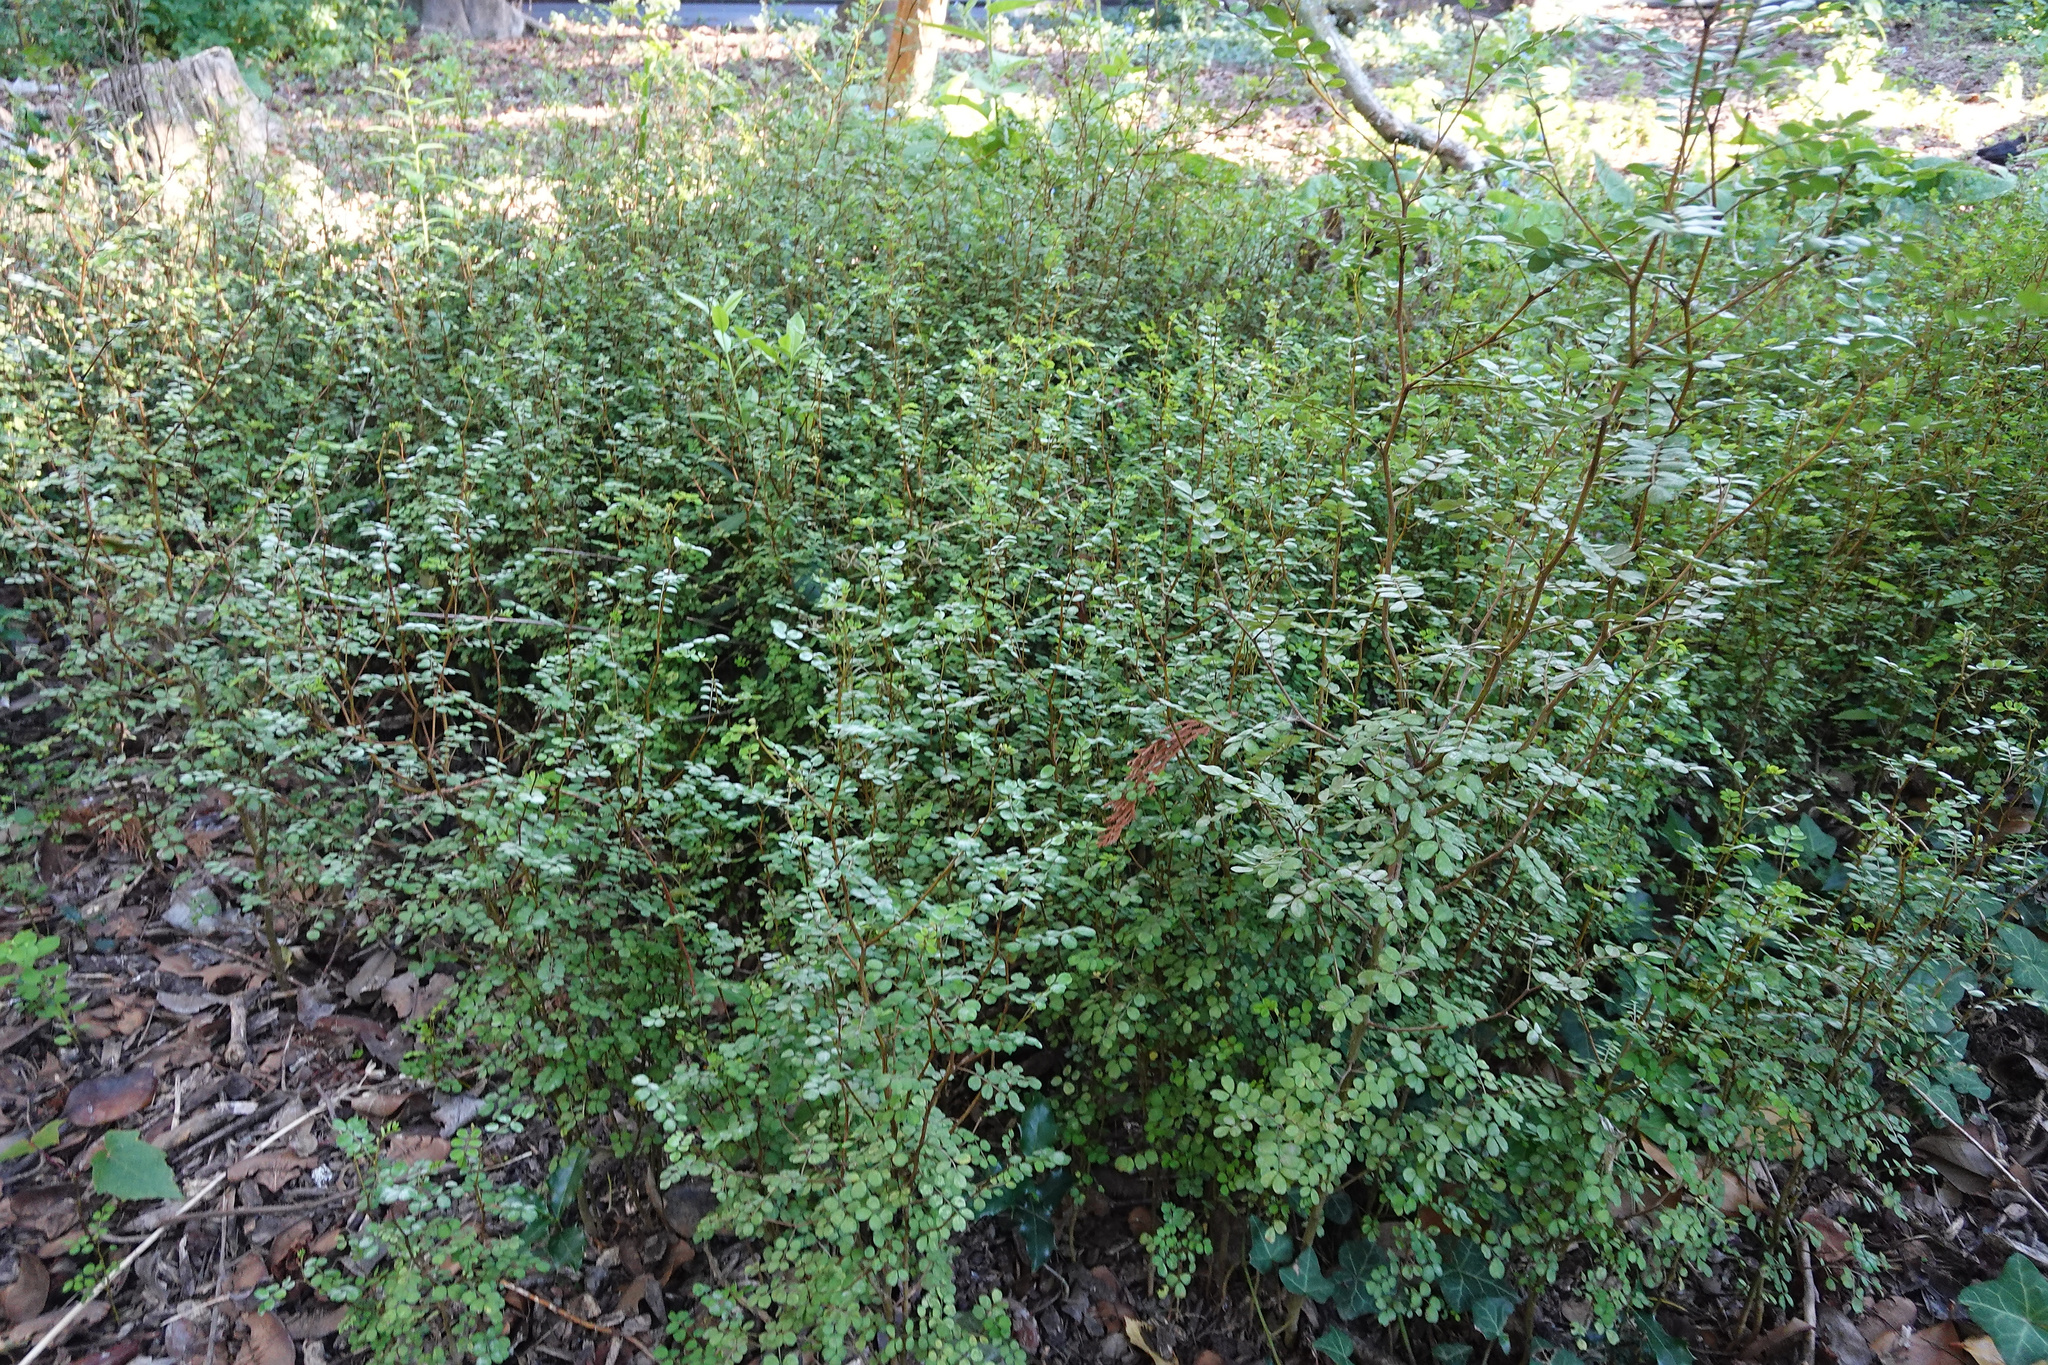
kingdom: Plantae
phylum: Tracheophyta
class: Magnoliopsida
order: Fabales
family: Fabaceae
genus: Sophora
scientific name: Sophora microphylla
